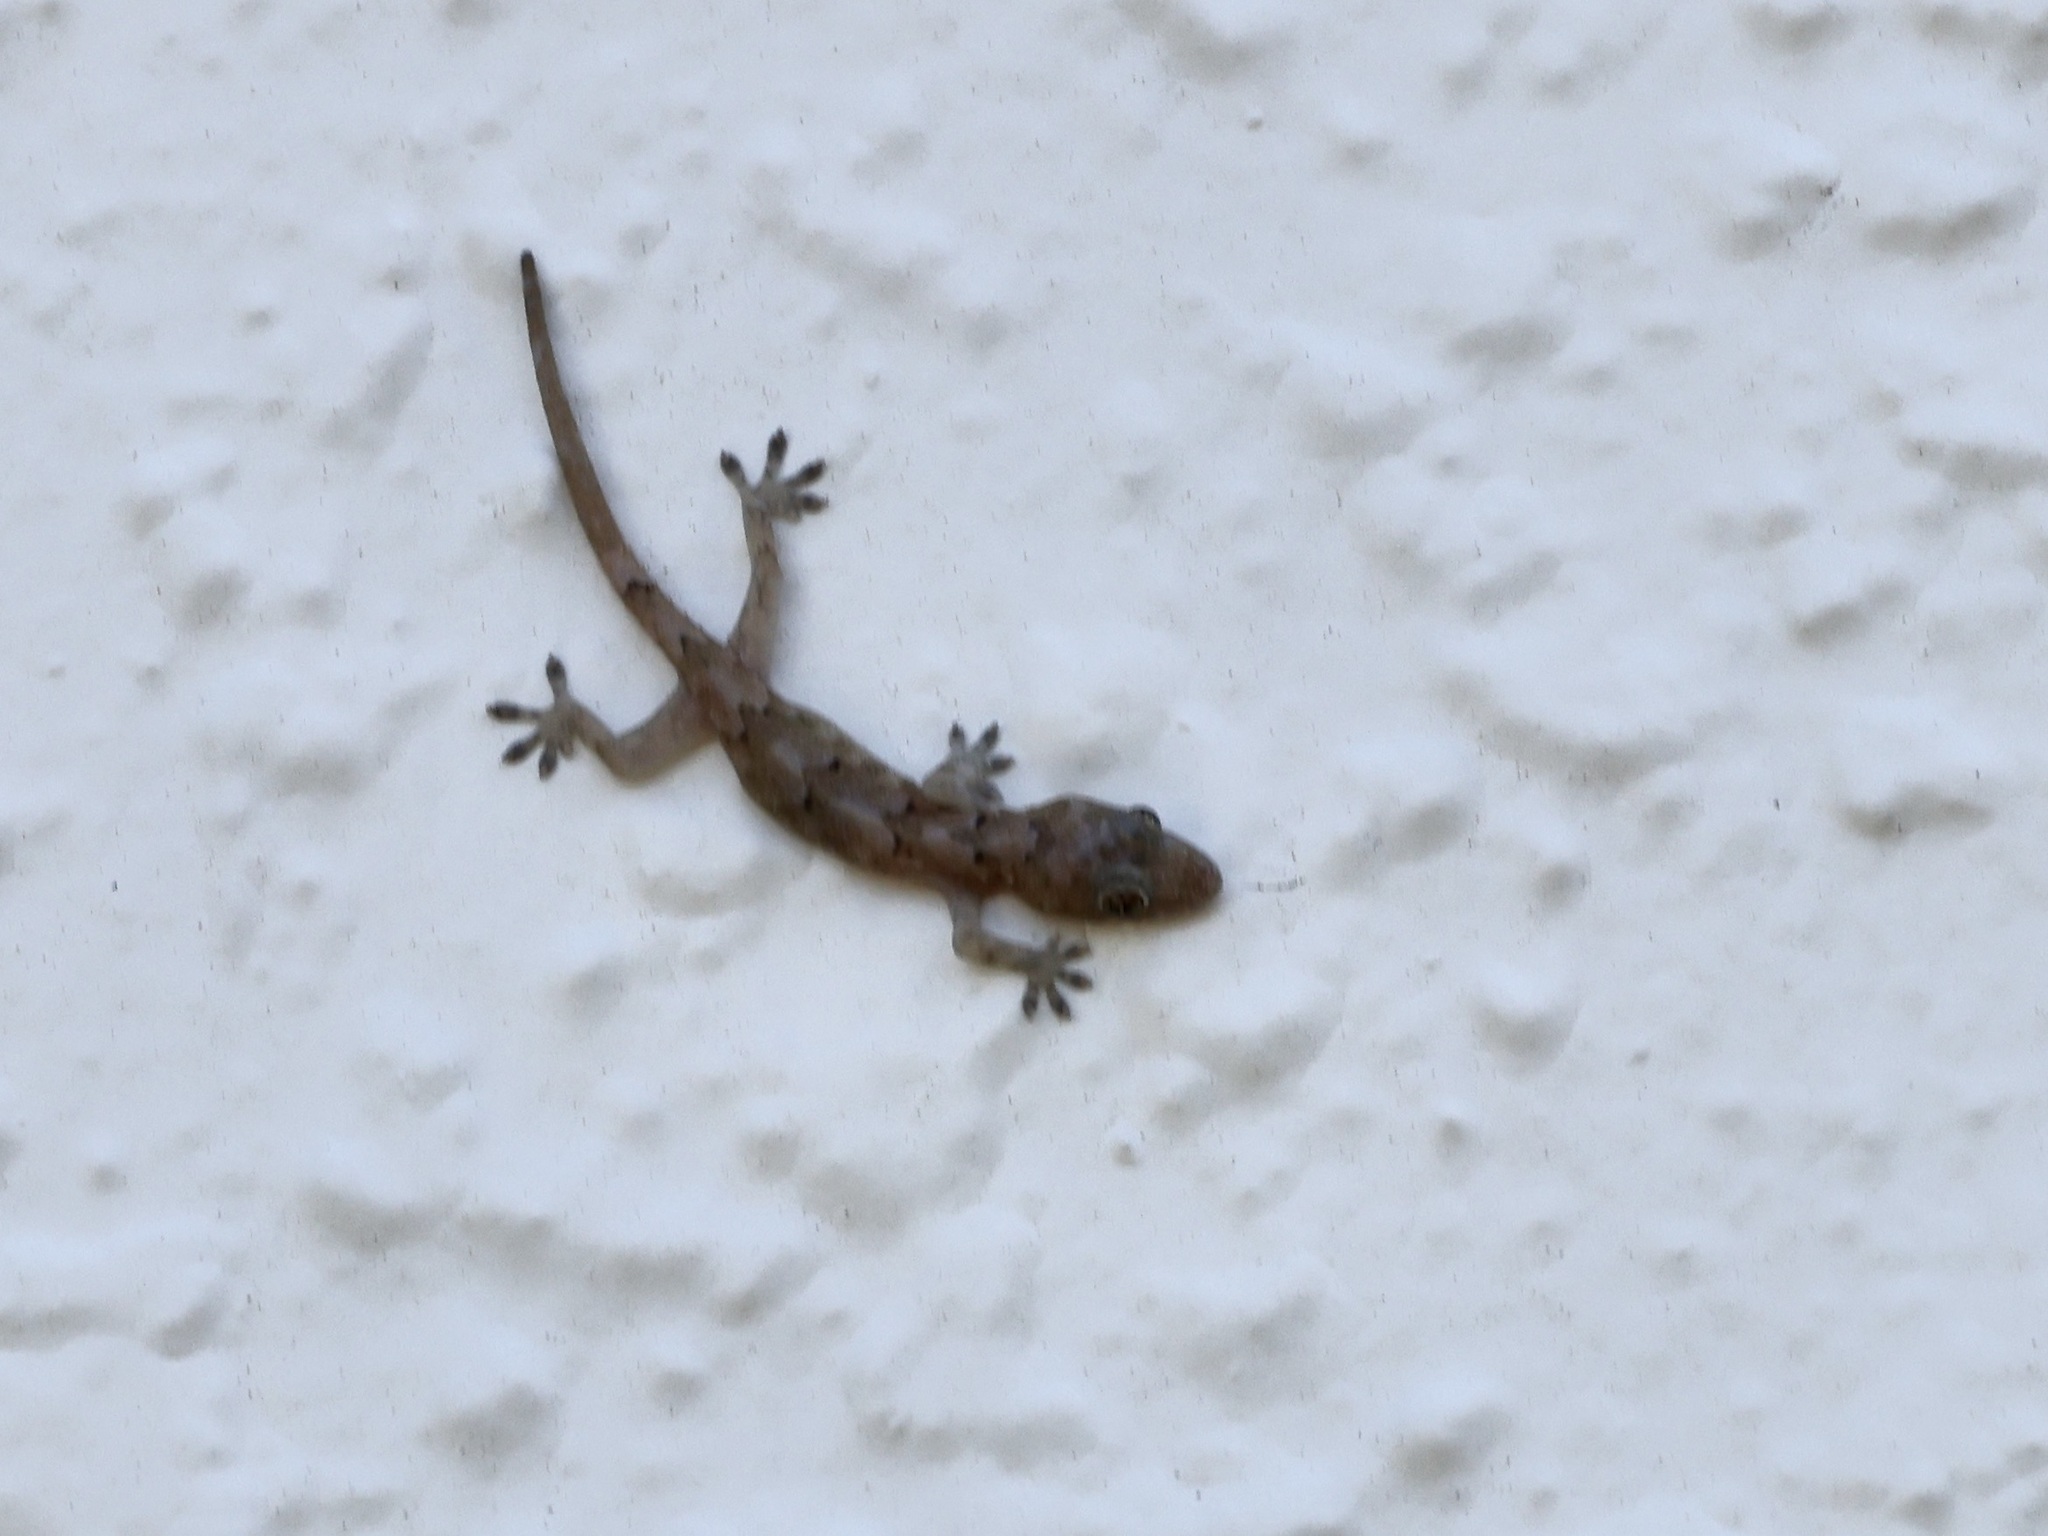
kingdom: Animalia
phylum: Chordata
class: Squamata
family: Gekkonidae
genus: Hemidactylus
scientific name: Hemidactylus mabouia
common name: House gecko
